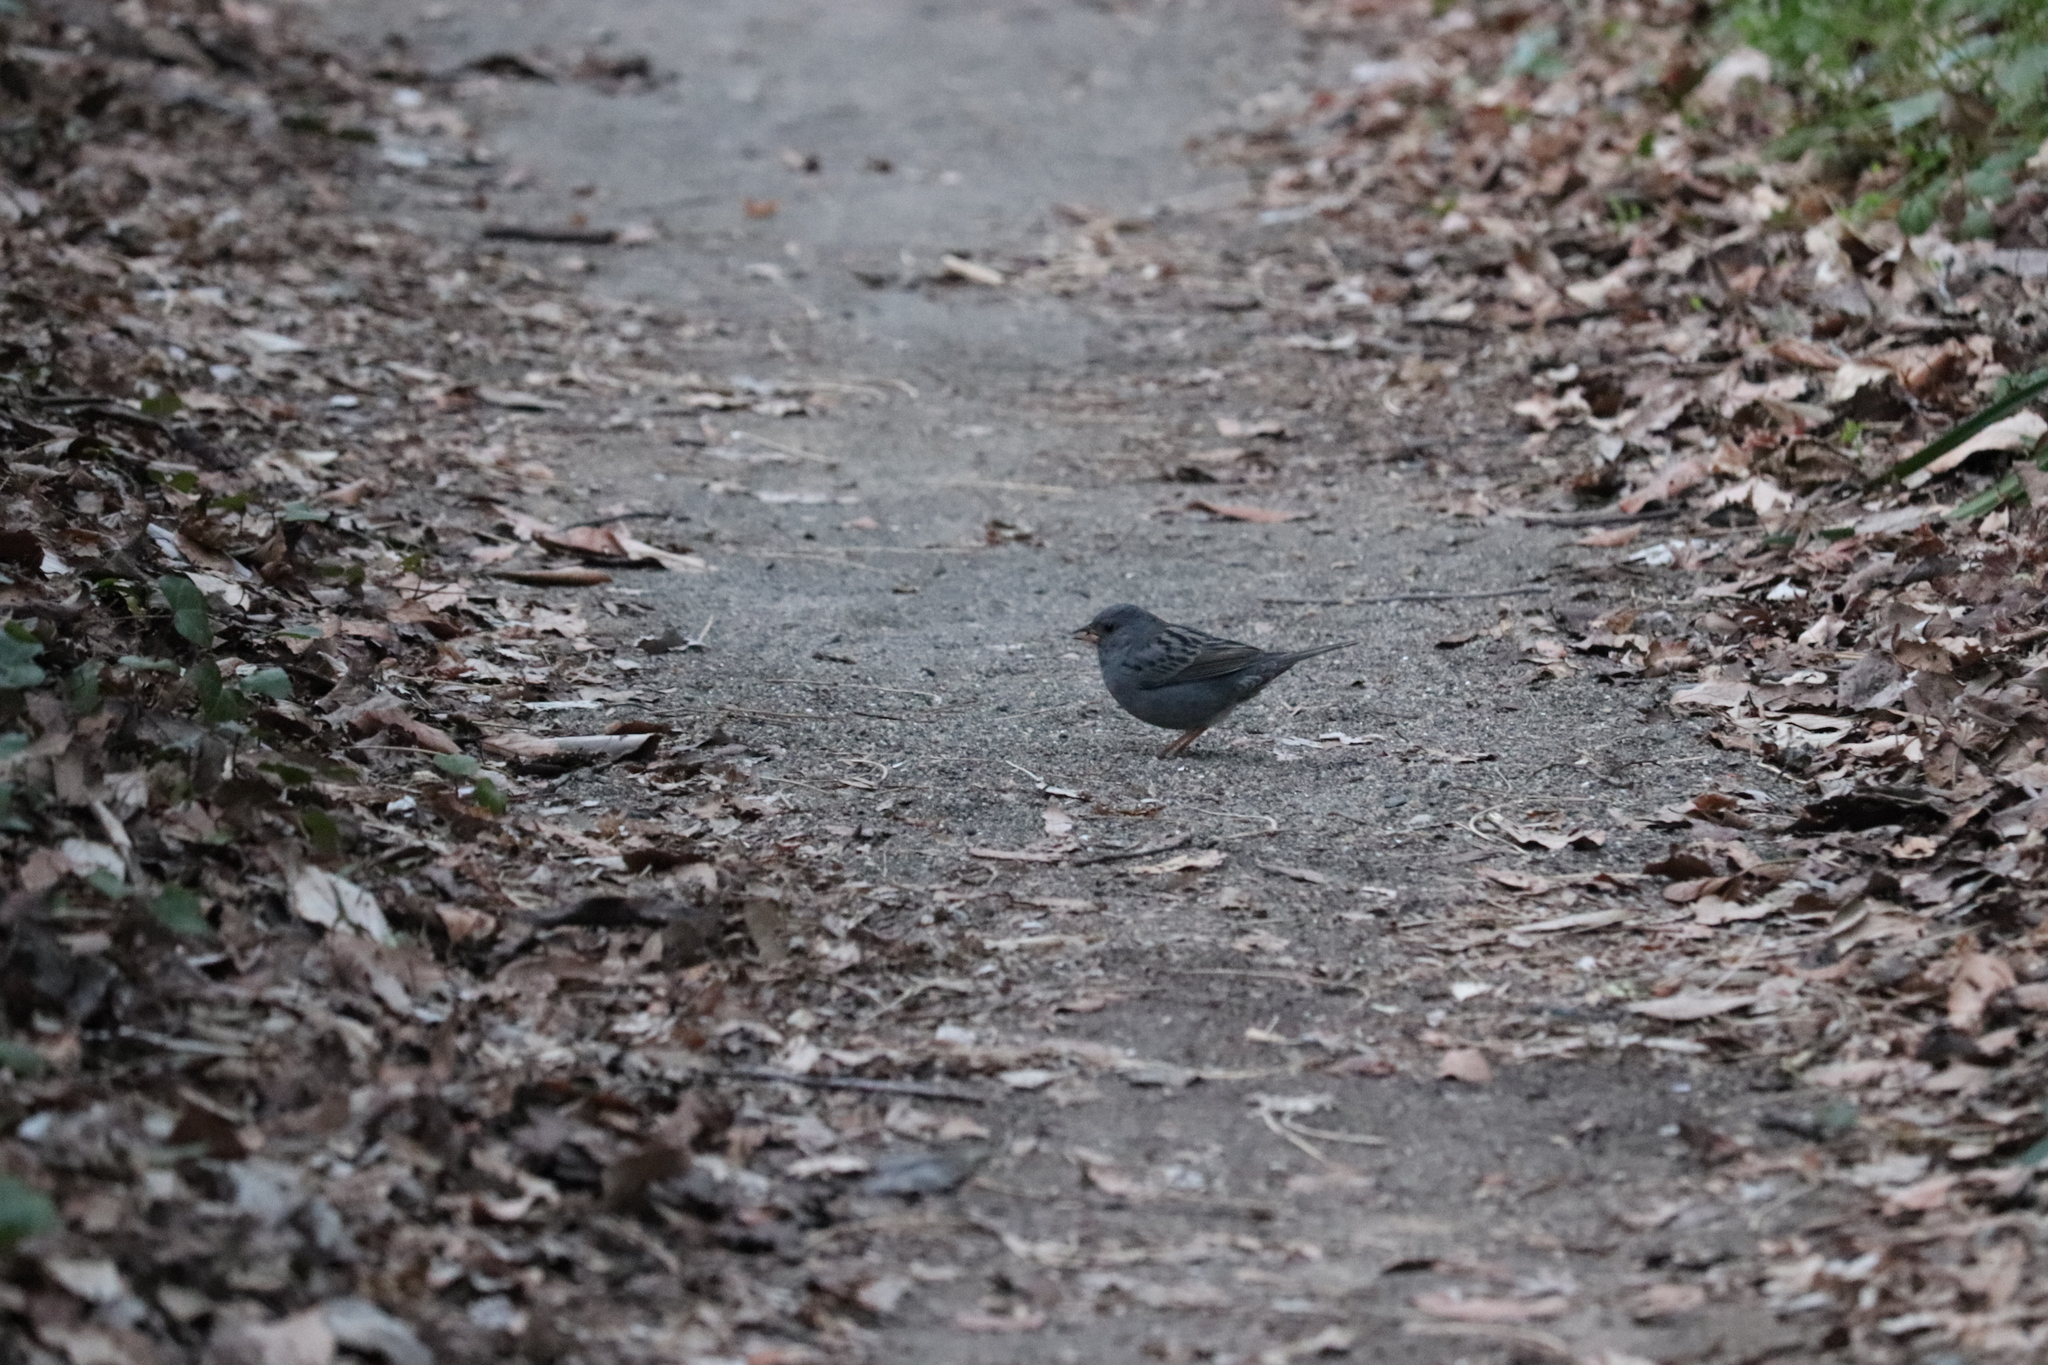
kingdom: Animalia
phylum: Chordata
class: Aves
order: Passeriformes
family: Emberizidae
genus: Emberiza
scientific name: Emberiza variabilis
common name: Gray bunting
